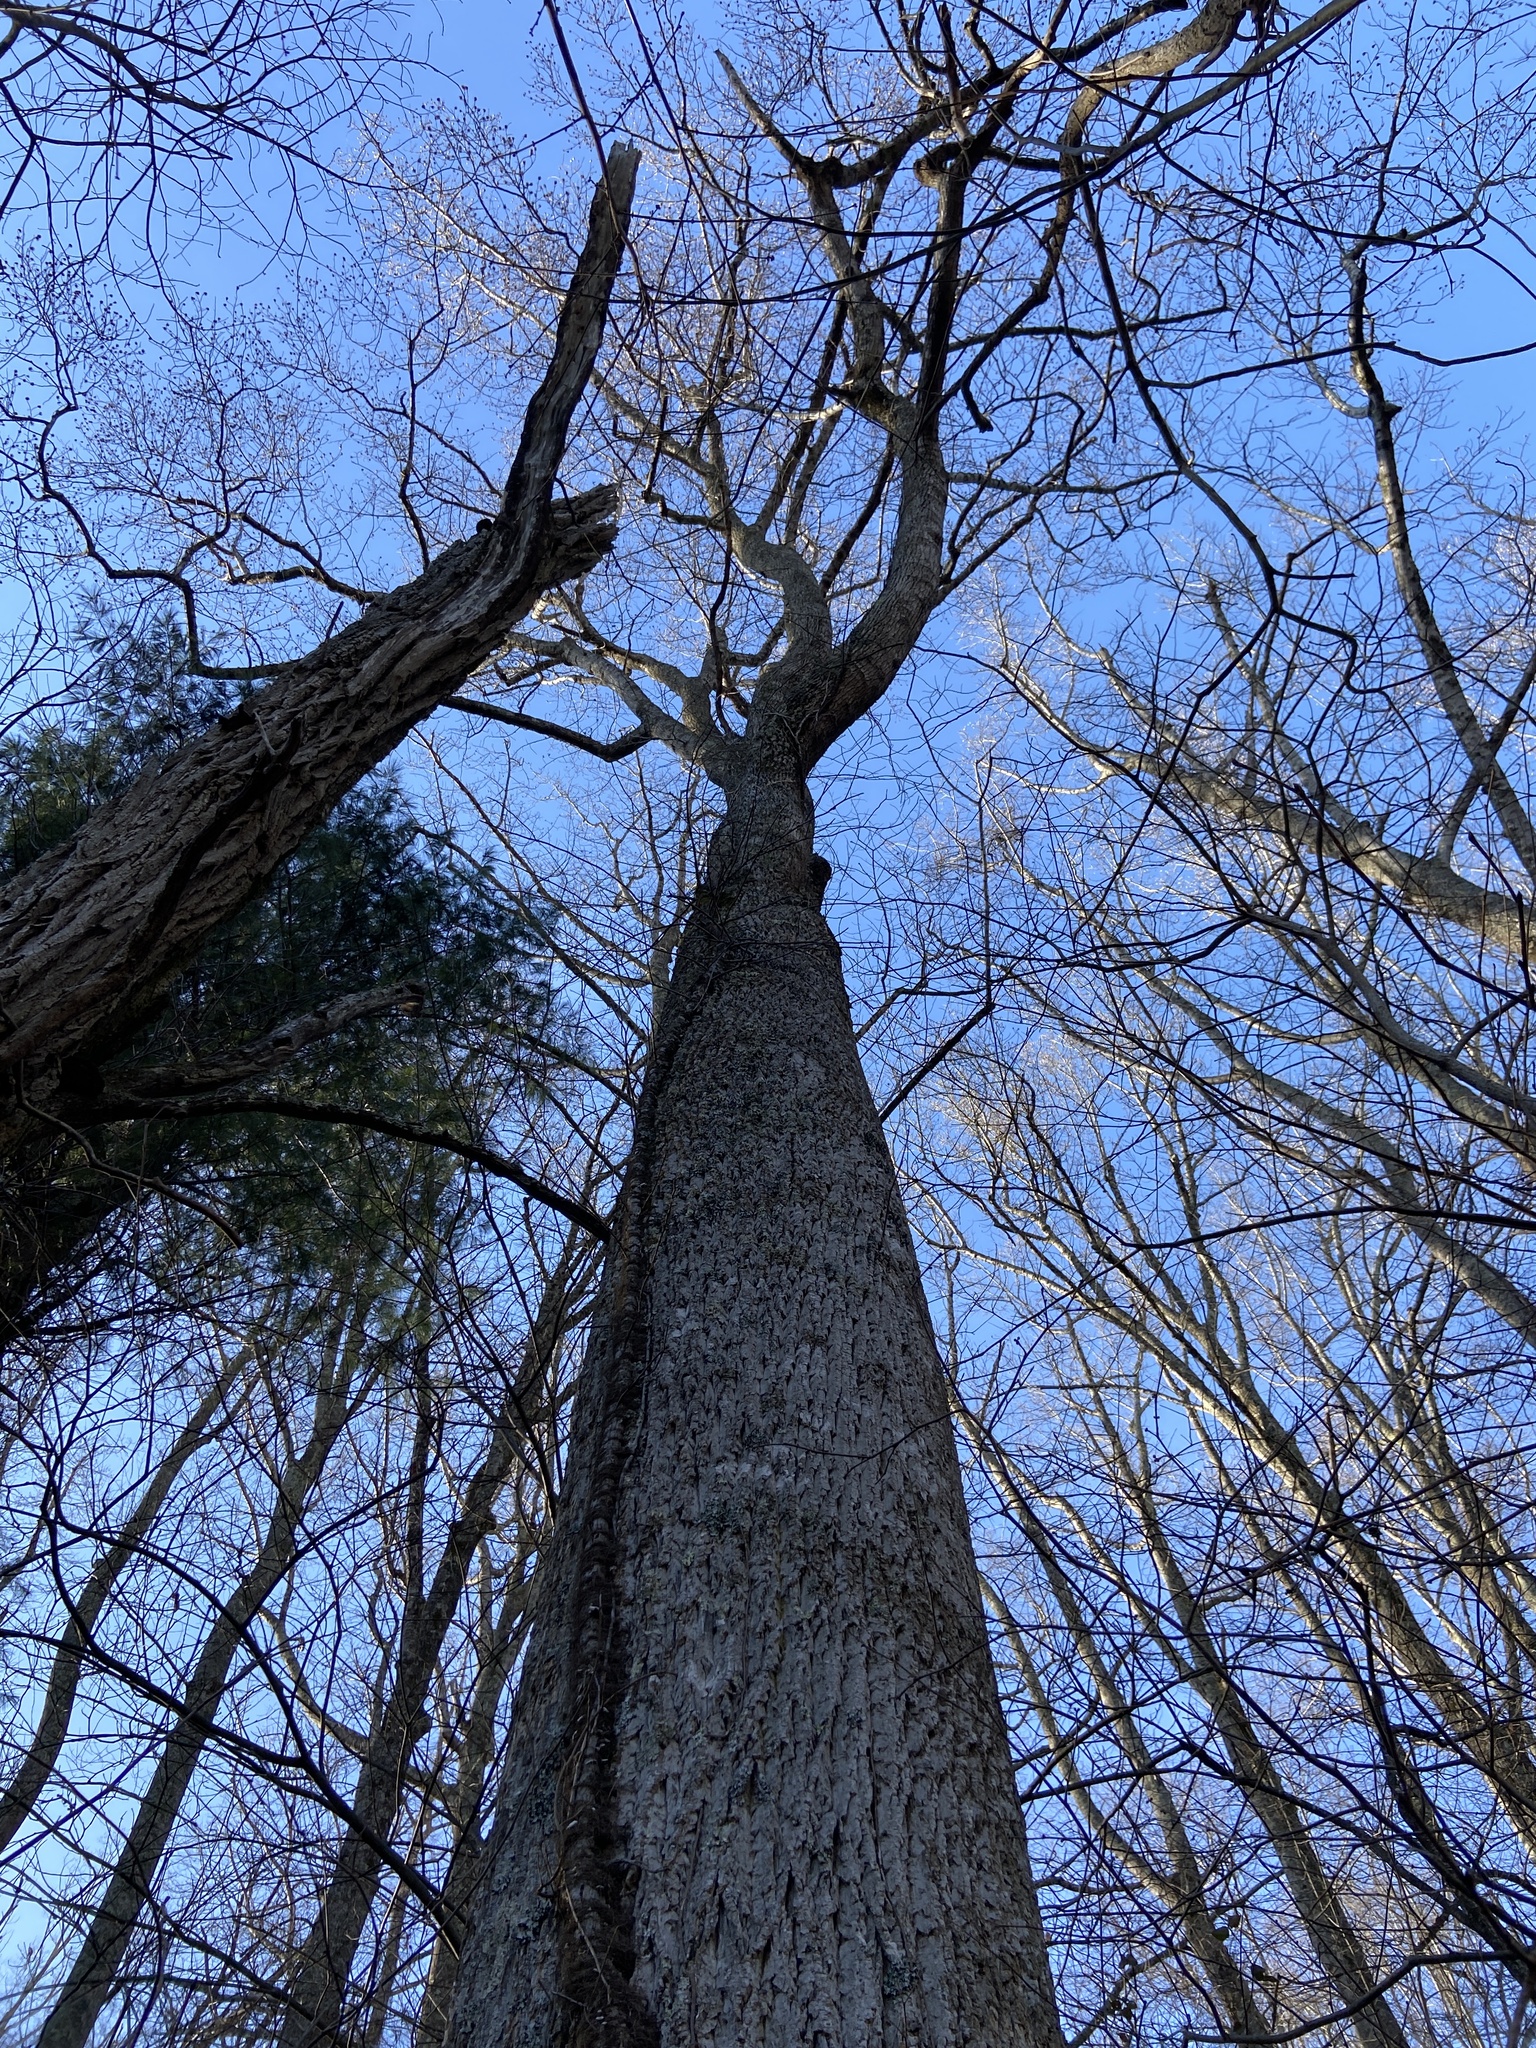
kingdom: Plantae
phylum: Tracheophyta
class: Magnoliopsida
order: Magnoliales
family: Magnoliaceae
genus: Liriodendron
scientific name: Liriodendron tulipifera
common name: Tulip tree
